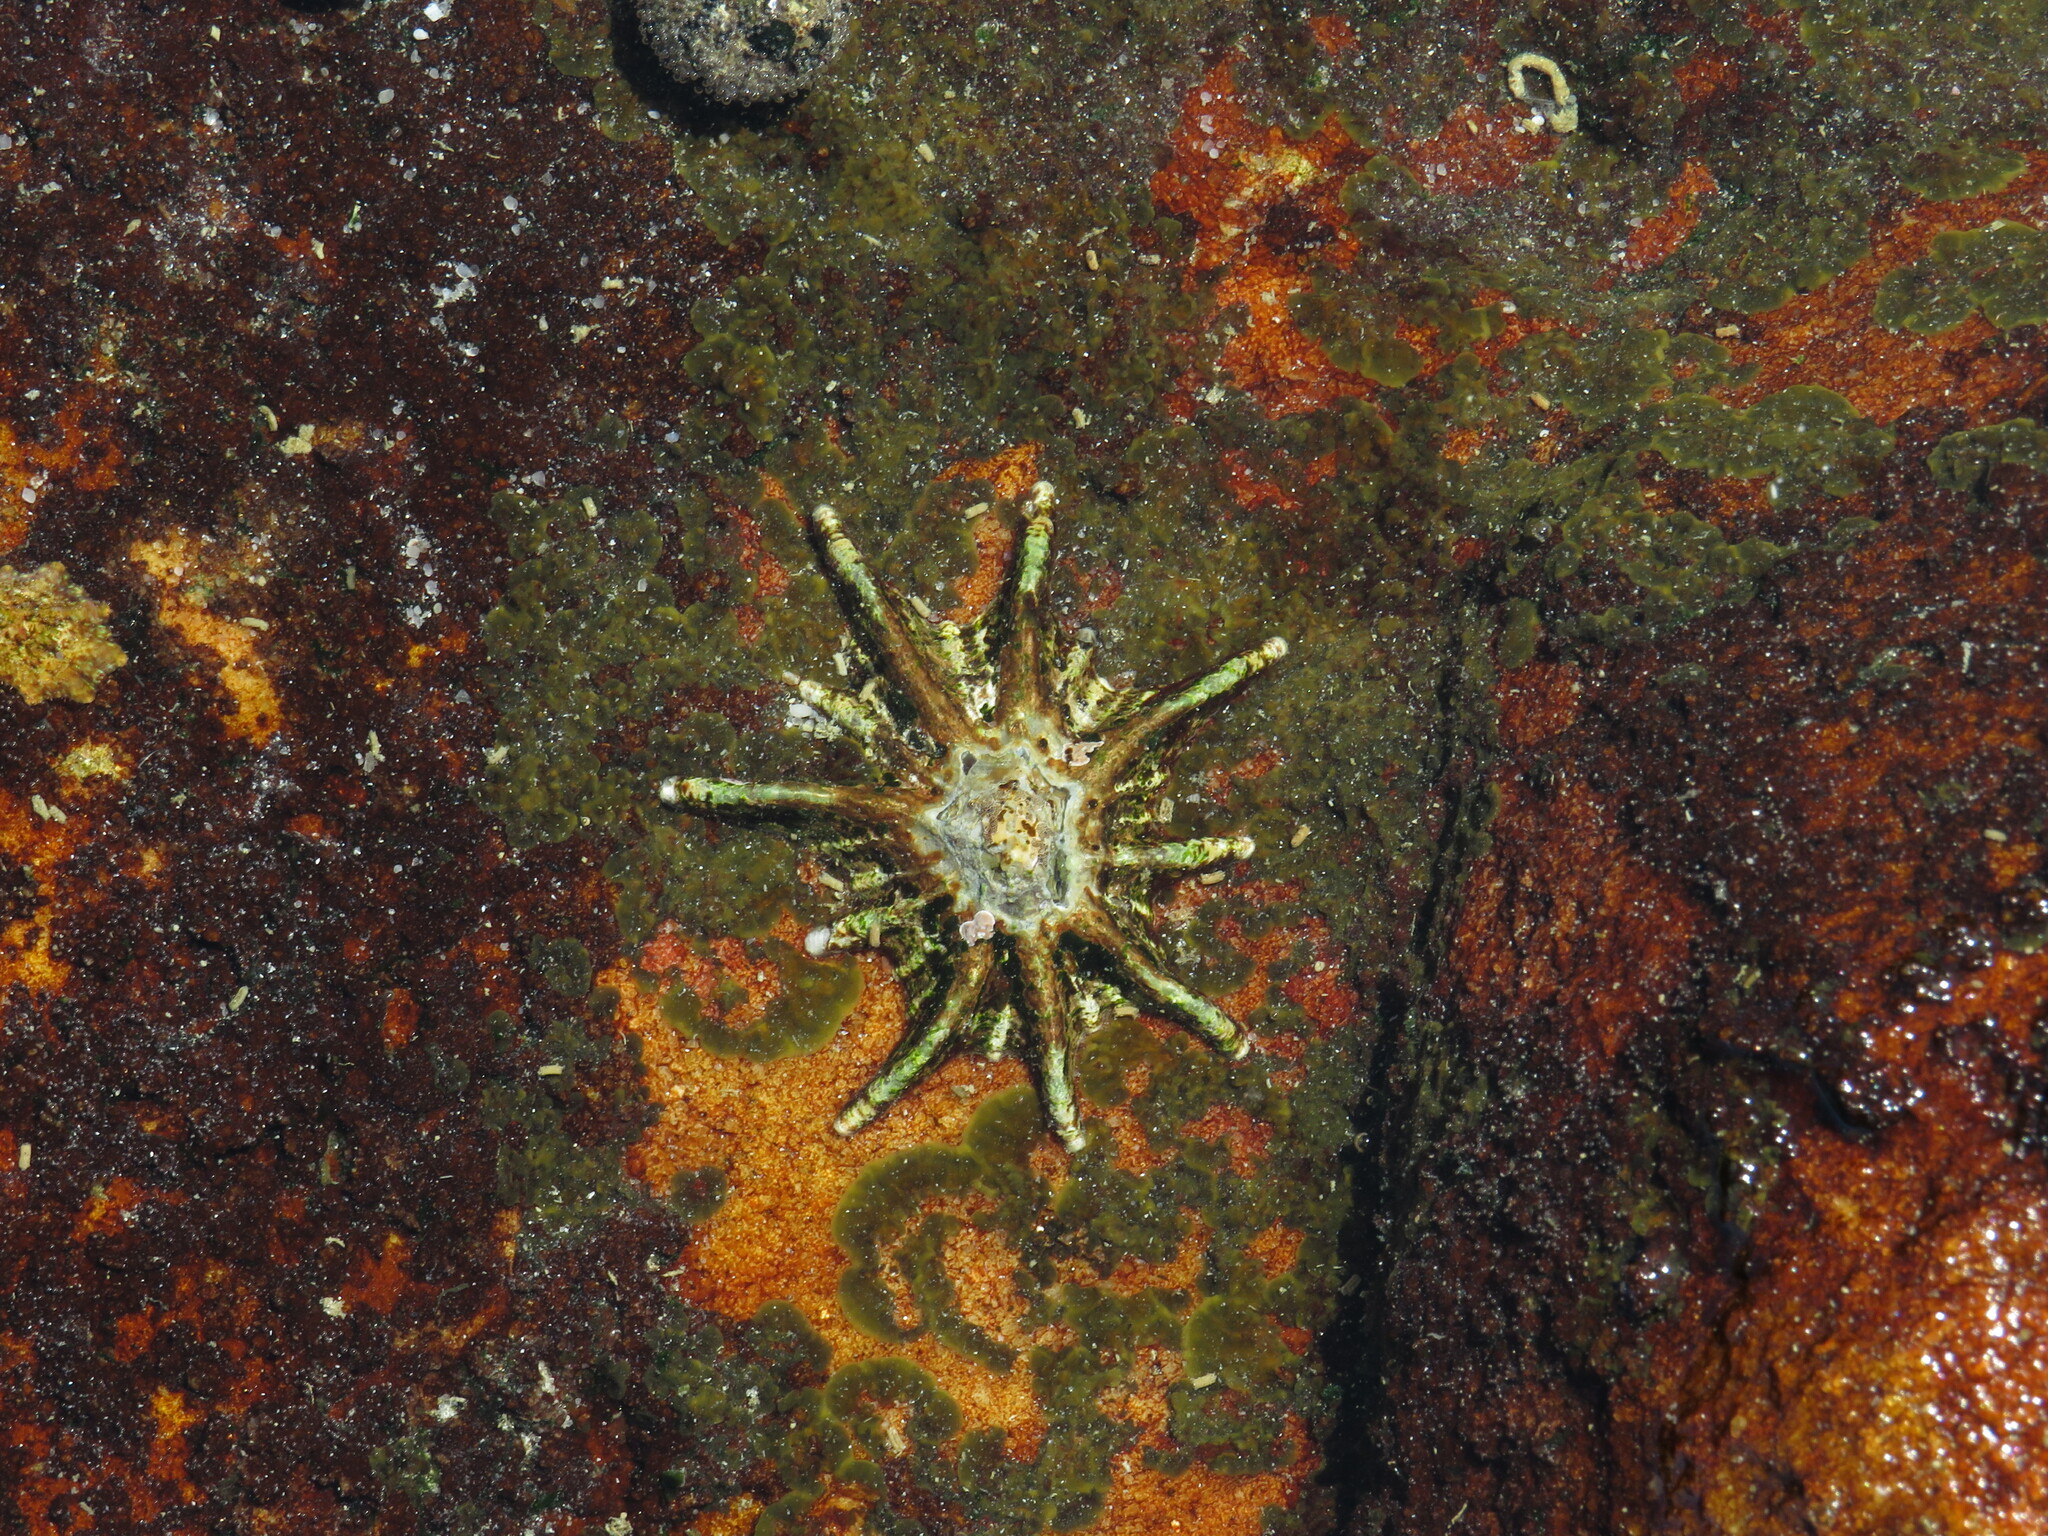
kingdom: Animalia
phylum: Mollusca
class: Gastropoda
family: Patellidae
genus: Scutellastra
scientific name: Scutellastra longicosta
